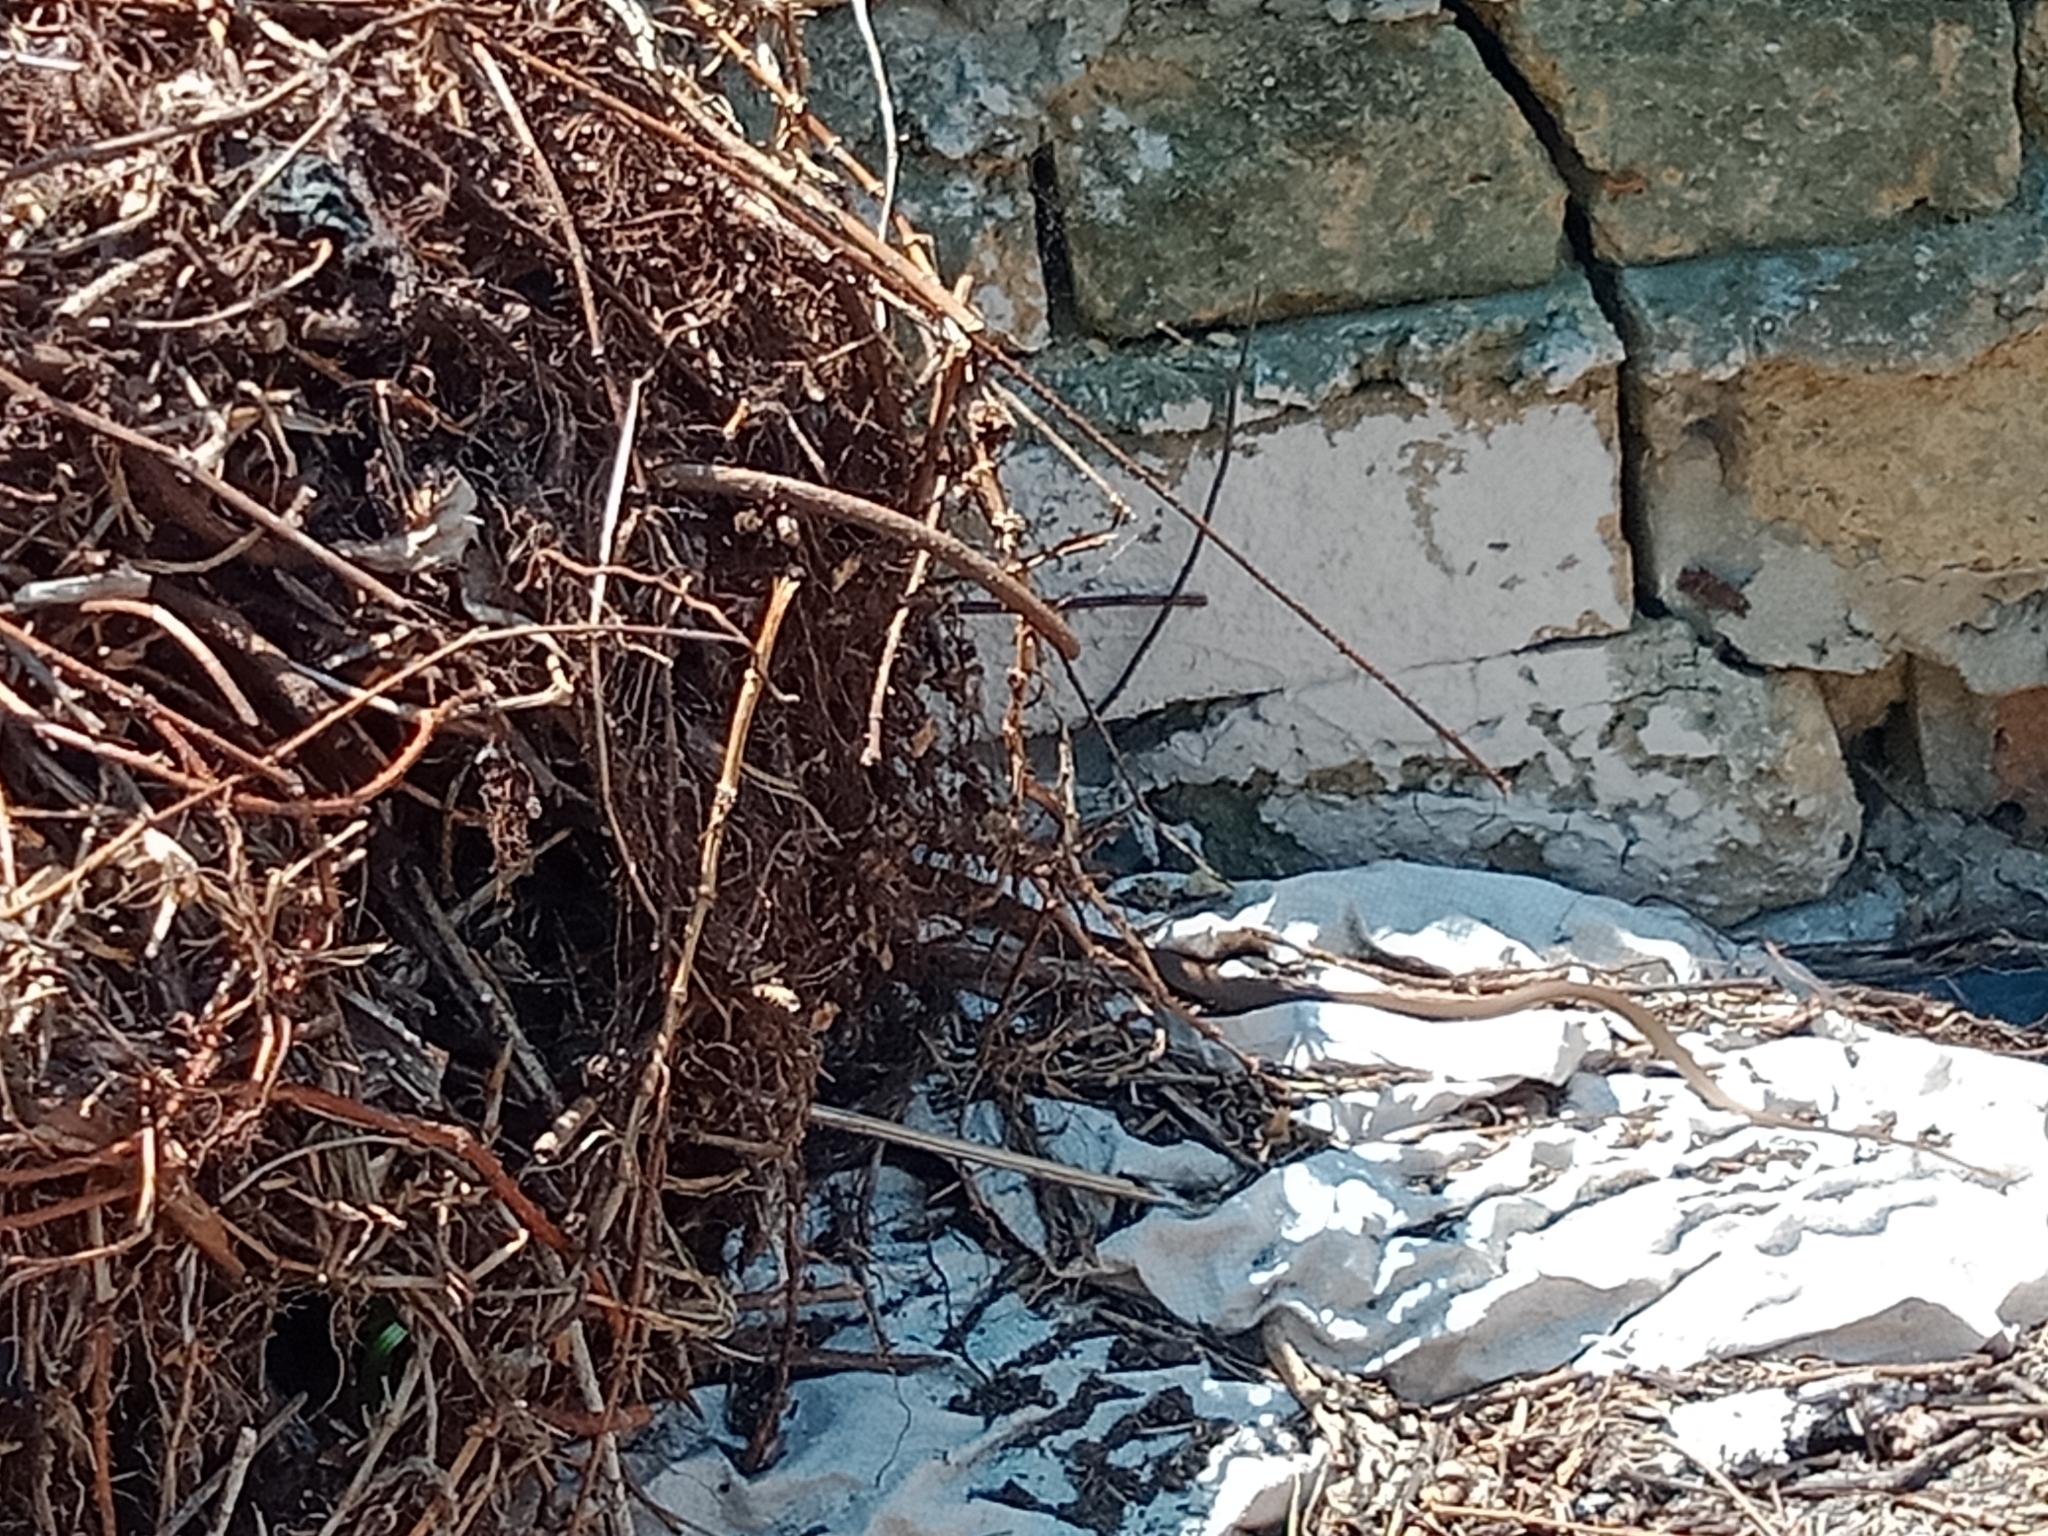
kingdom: Animalia
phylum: Chordata
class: Squamata
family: Elapidae
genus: Pseudonaja
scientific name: Pseudonaja textilis
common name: Eastern brown snake
